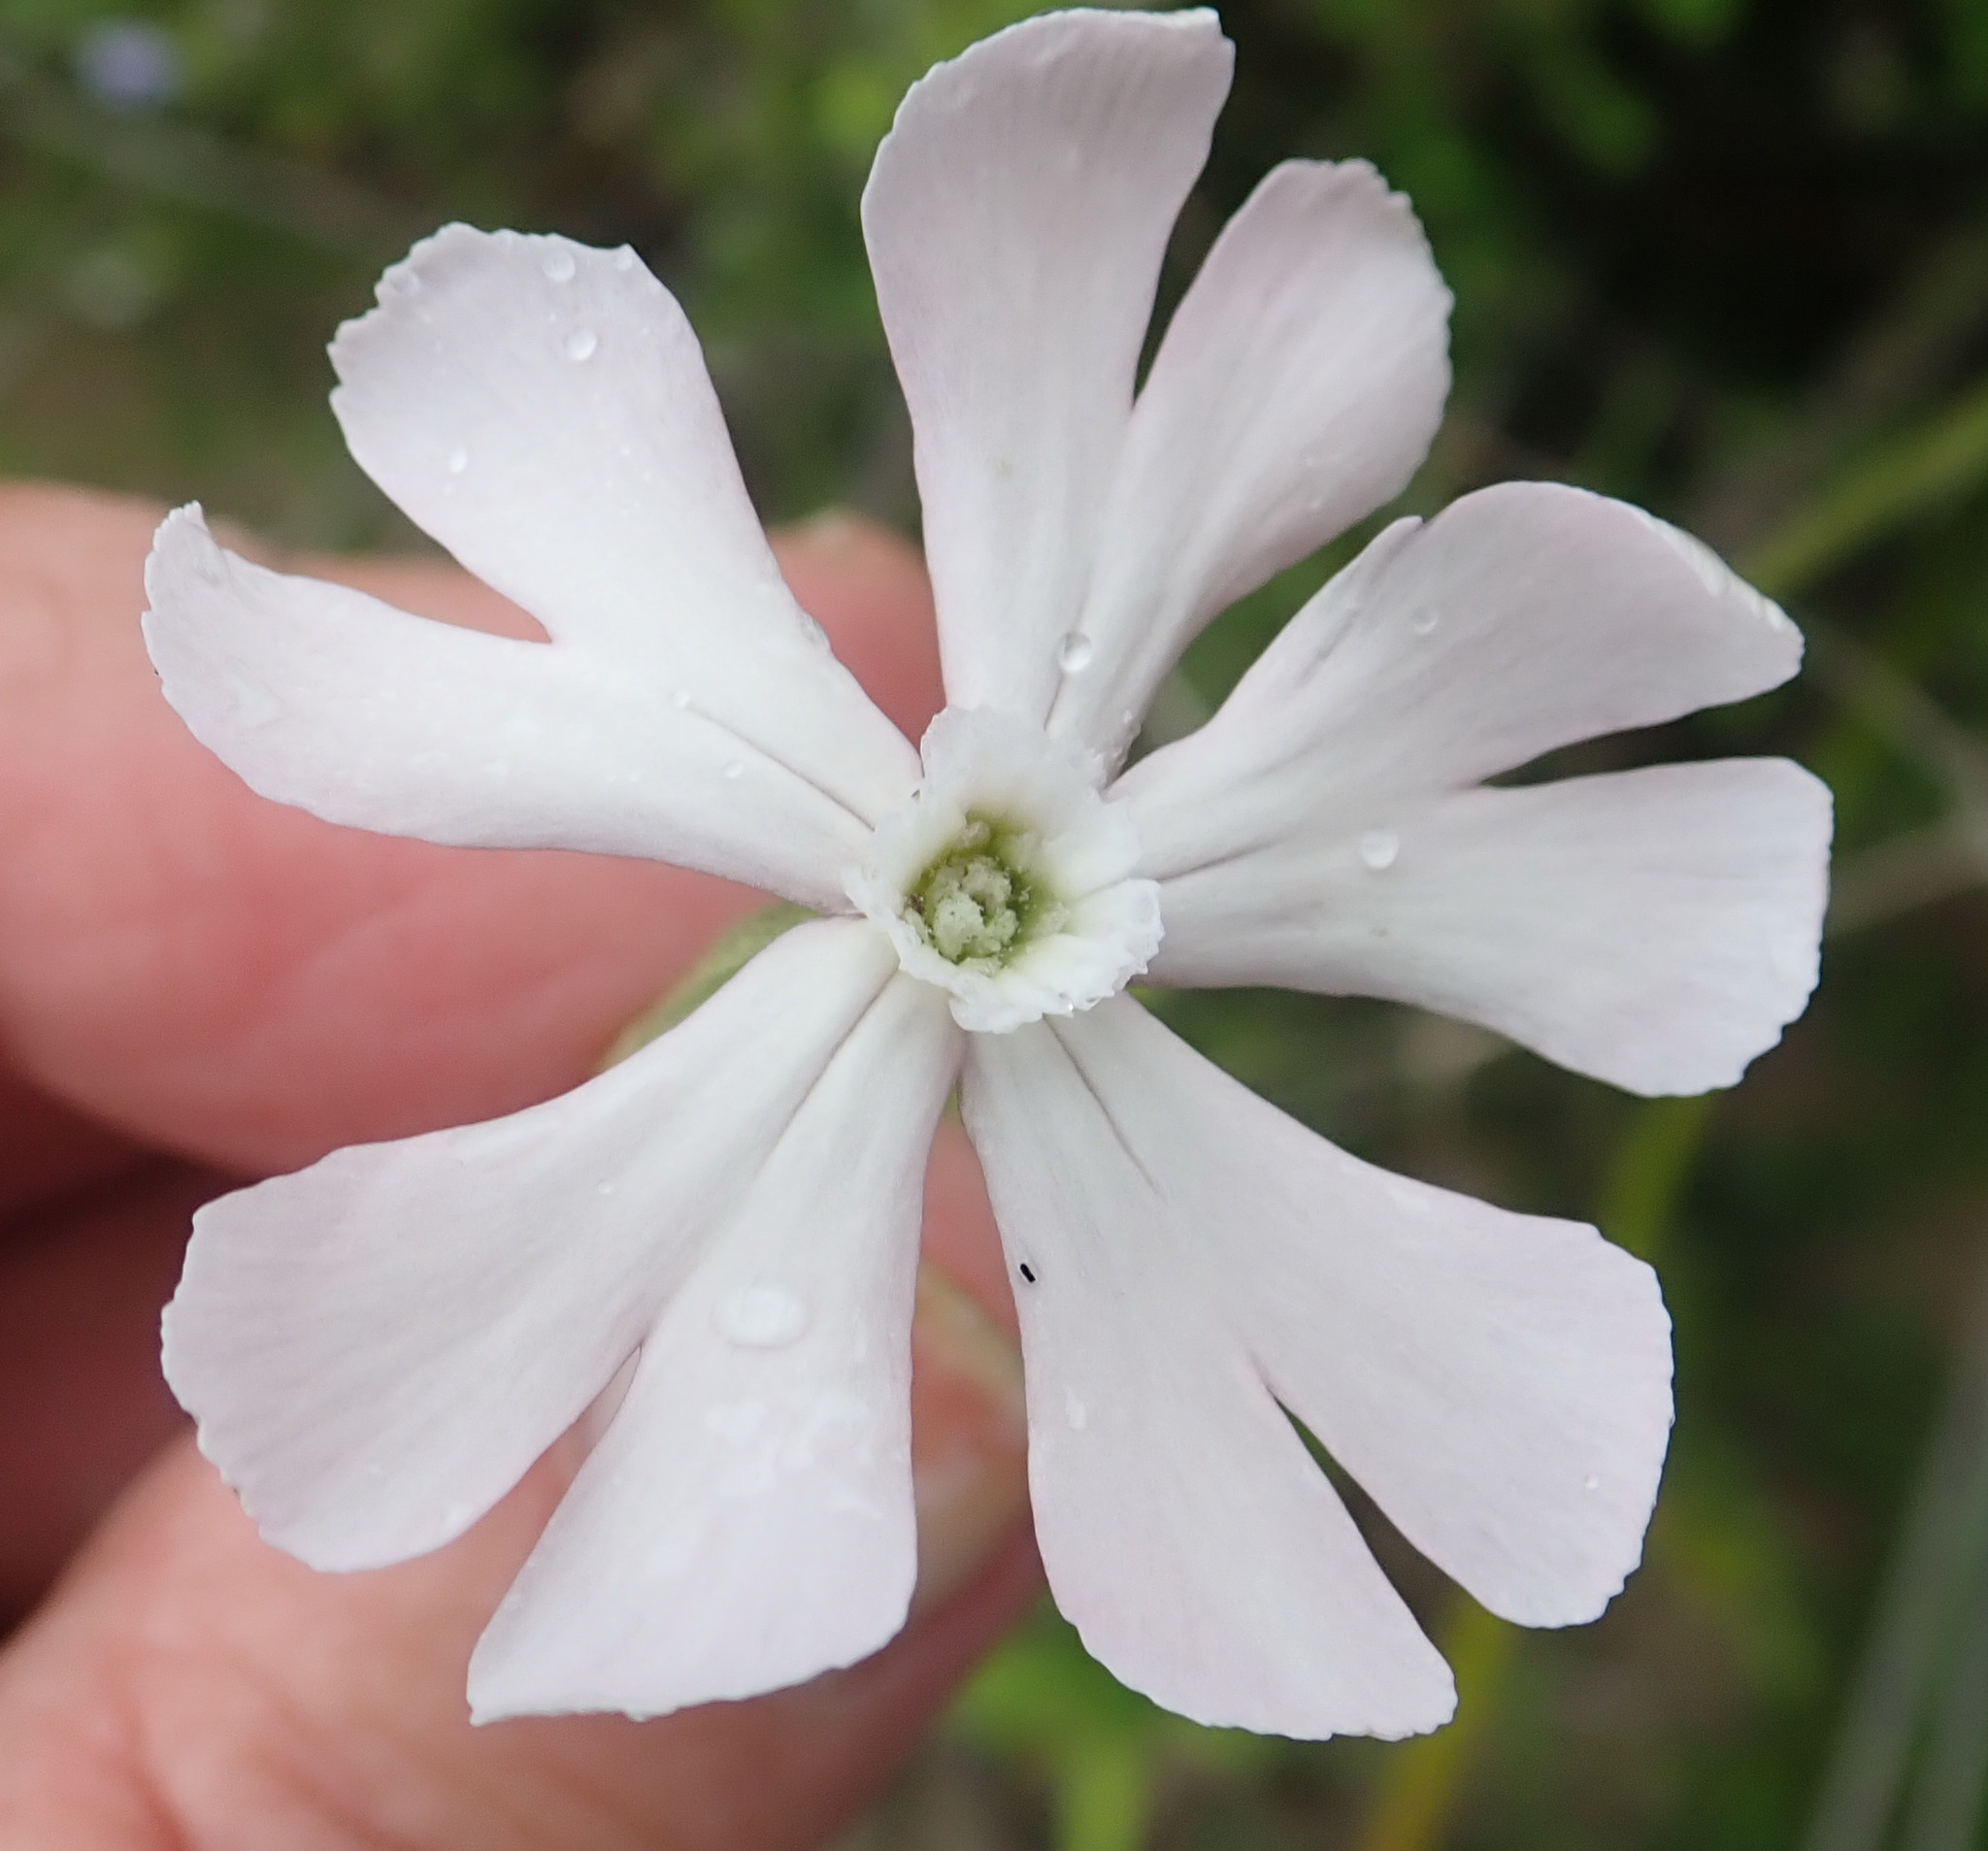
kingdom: Plantae
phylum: Tracheophyta
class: Magnoliopsida
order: Caryophyllales
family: Caryophyllaceae
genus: Silene
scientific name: Silene undulata
